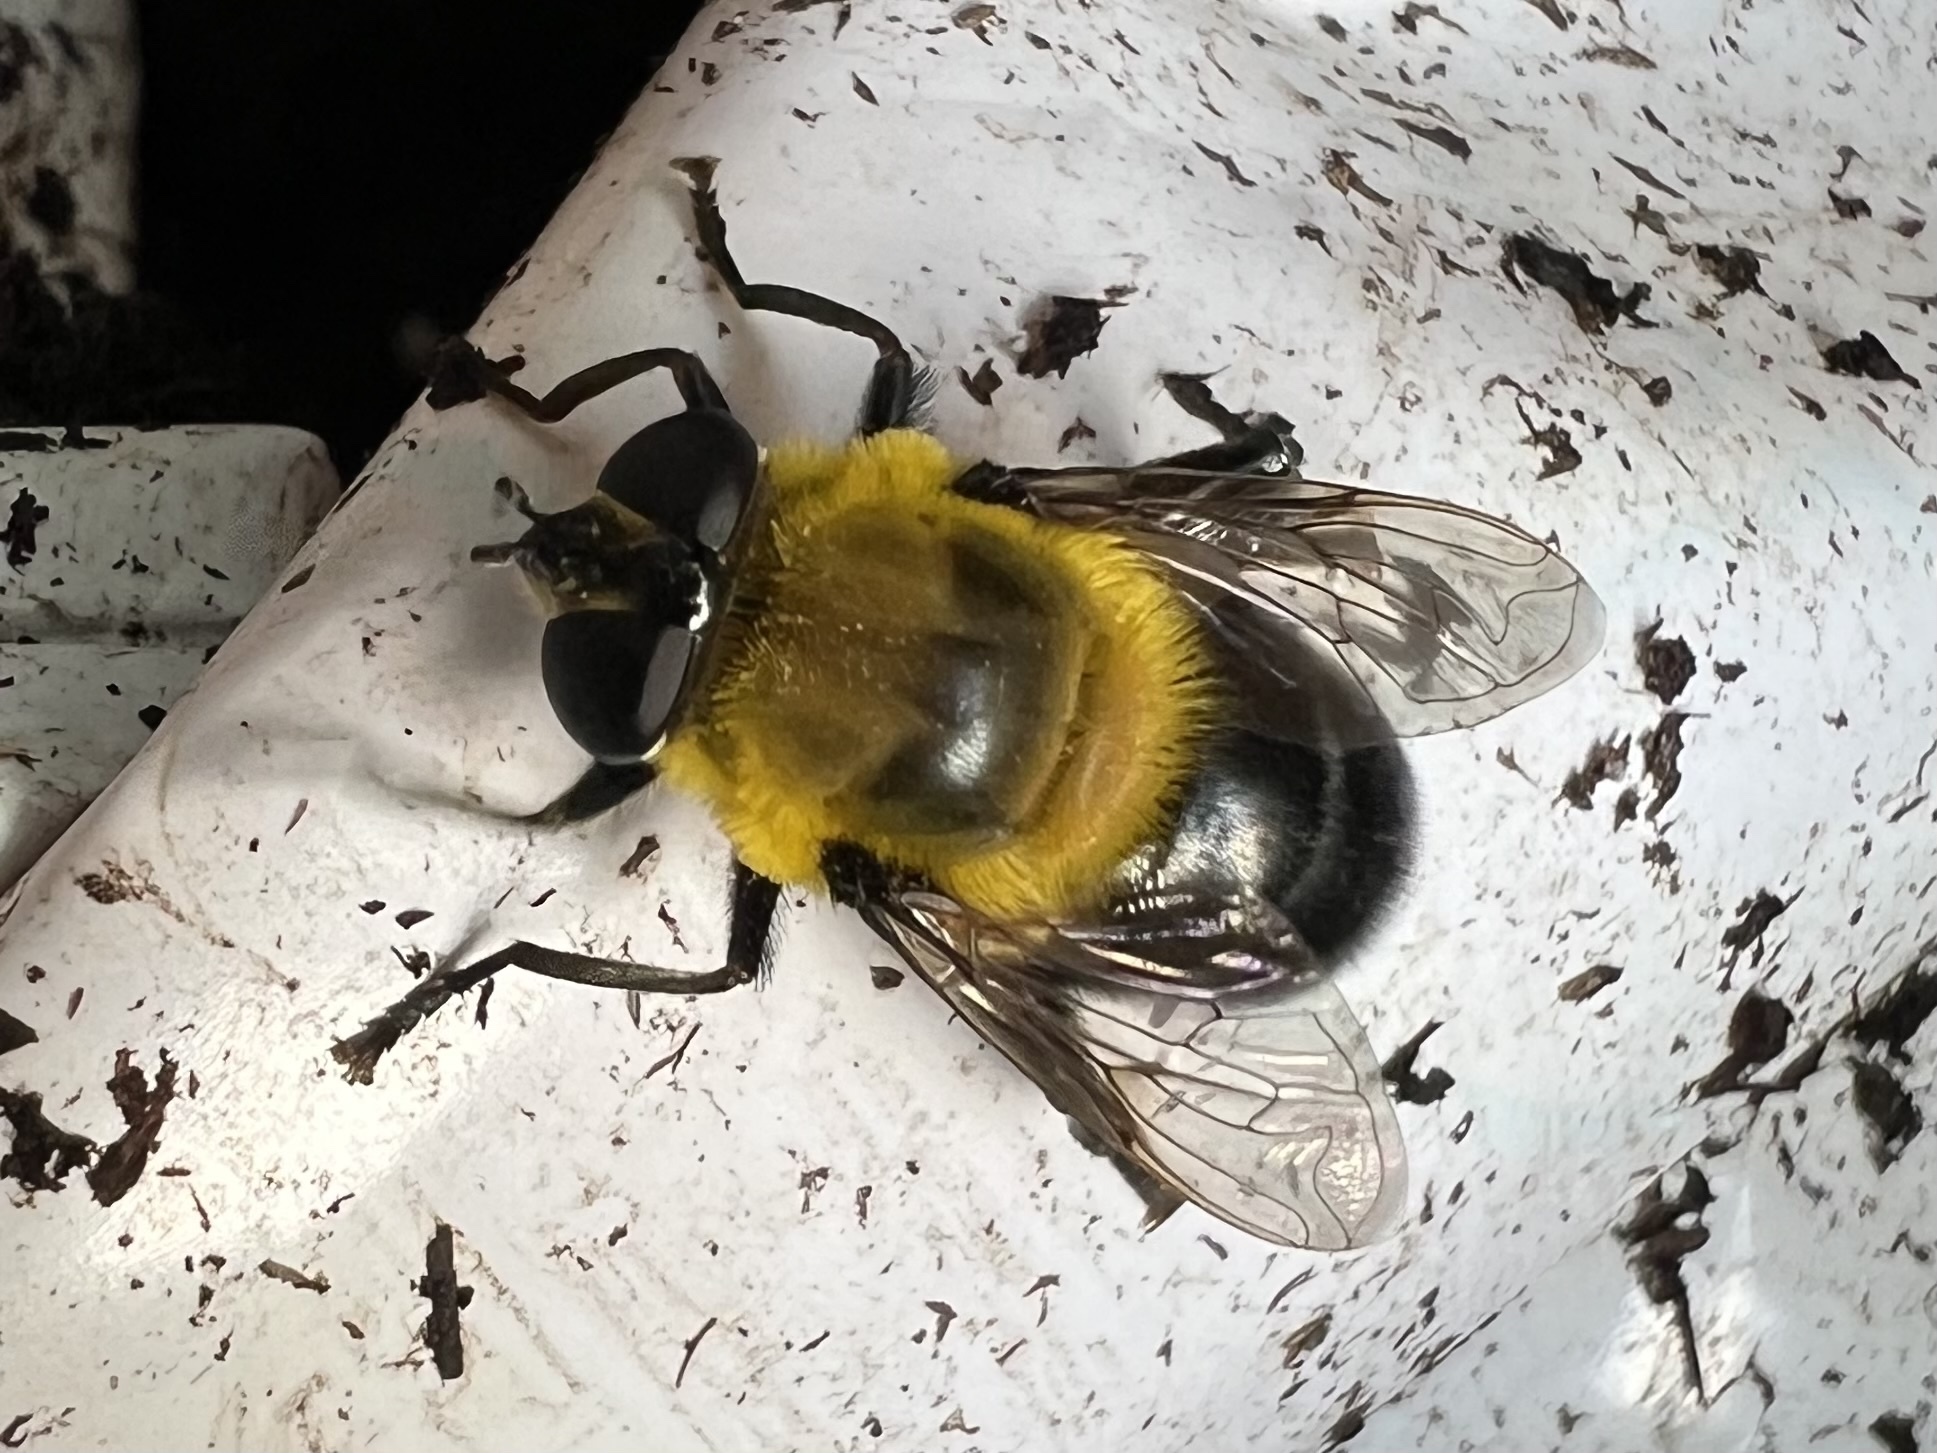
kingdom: Animalia
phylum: Arthropoda
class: Insecta
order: Diptera
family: Syrphidae
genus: Imatisma
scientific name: Imatisma bautias
